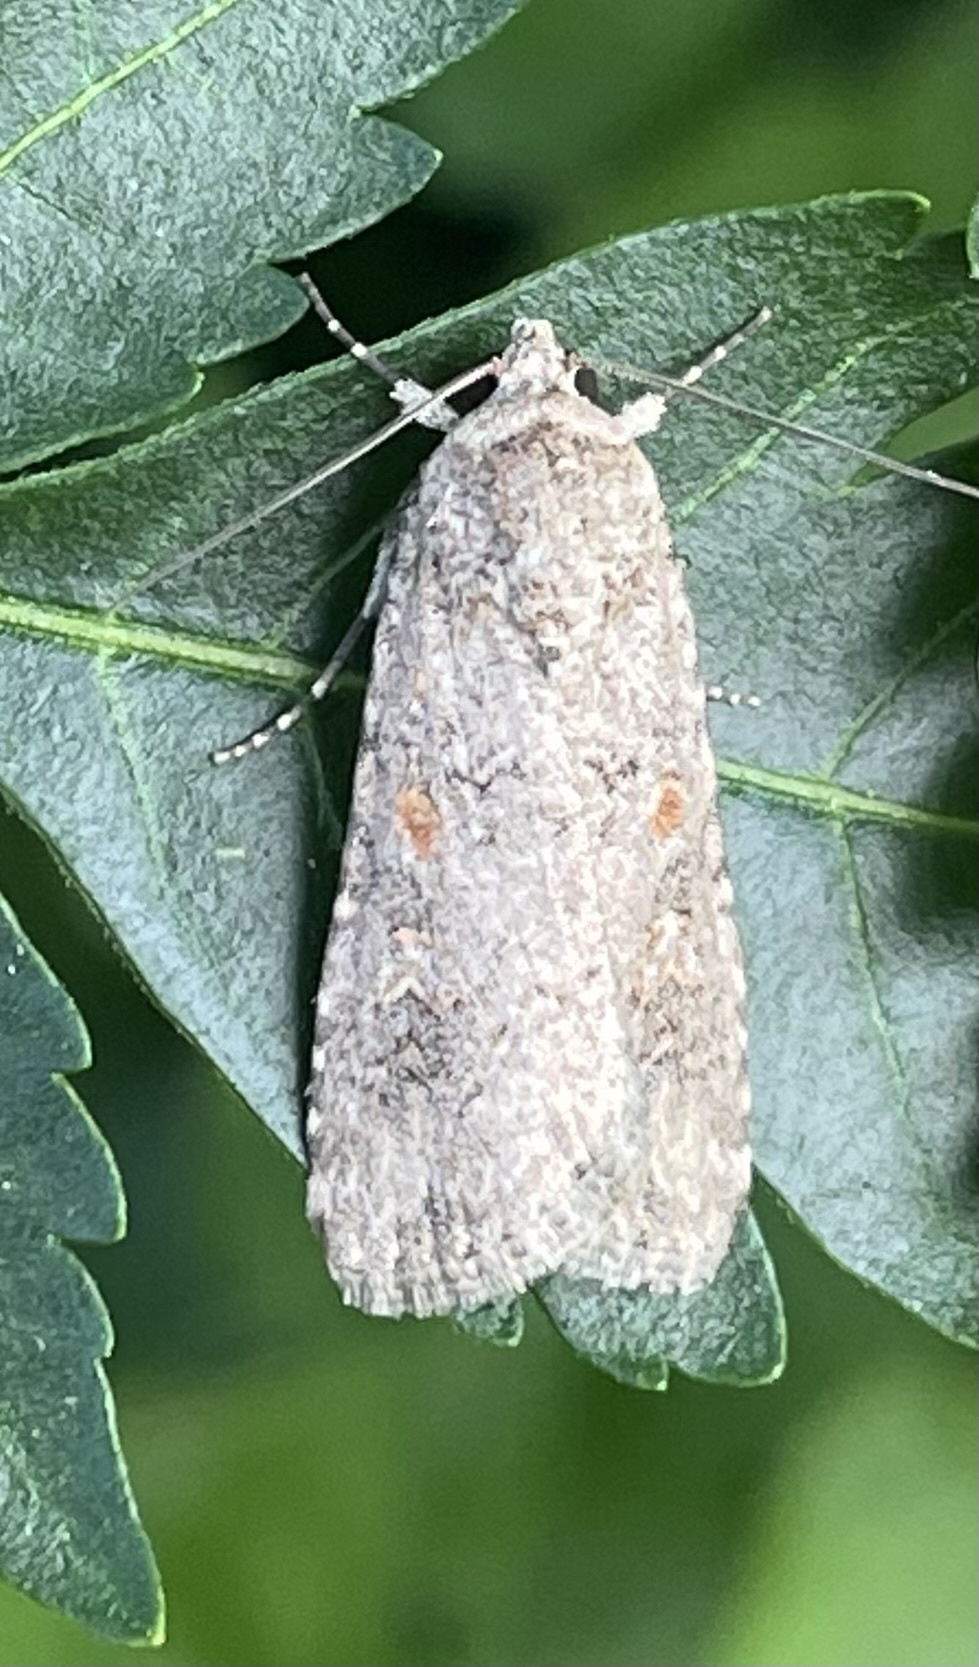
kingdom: Animalia
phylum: Arthropoda
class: Insecta
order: Lepidoptera
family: Noctuidae
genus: Spodoptera
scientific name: Spodoptera exigua
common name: Beet armyworm
